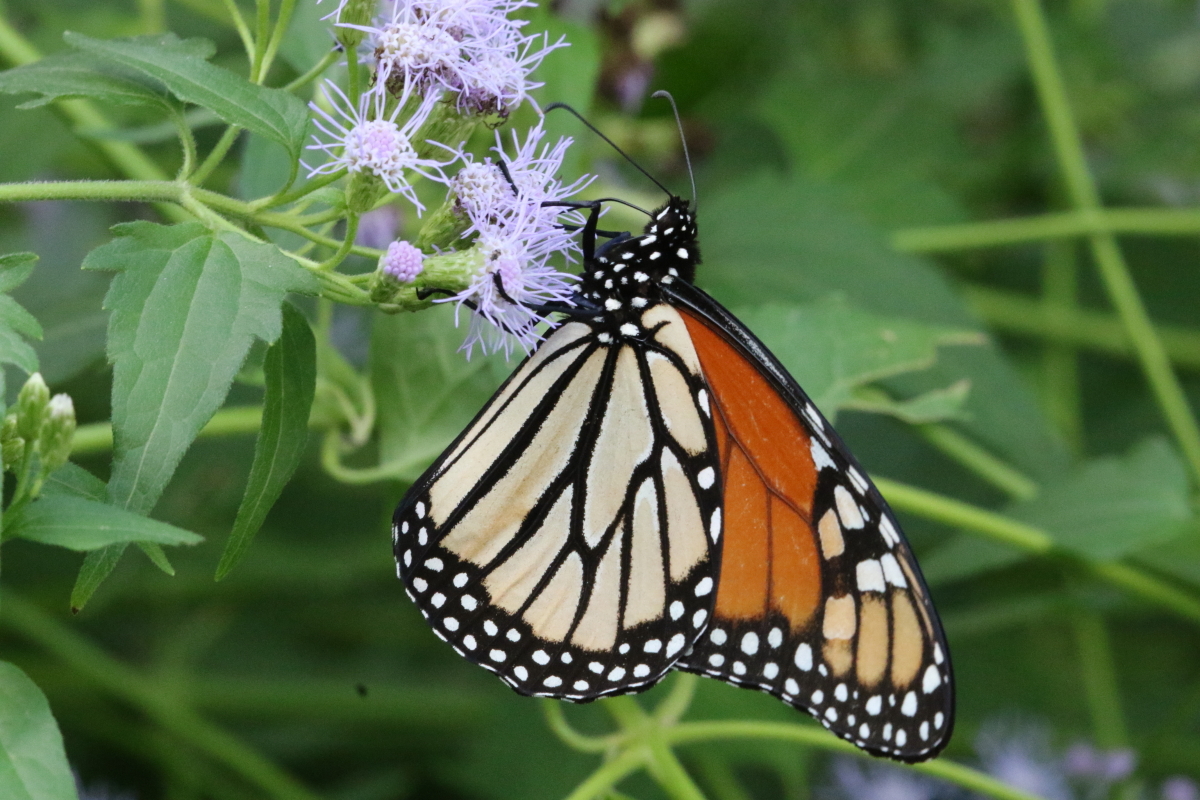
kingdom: Animalia
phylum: Arthropoda
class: Insecta
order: Lepidoptera
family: Nymphalidae
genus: Danaus
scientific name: Danaus plexippus
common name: Monarch
